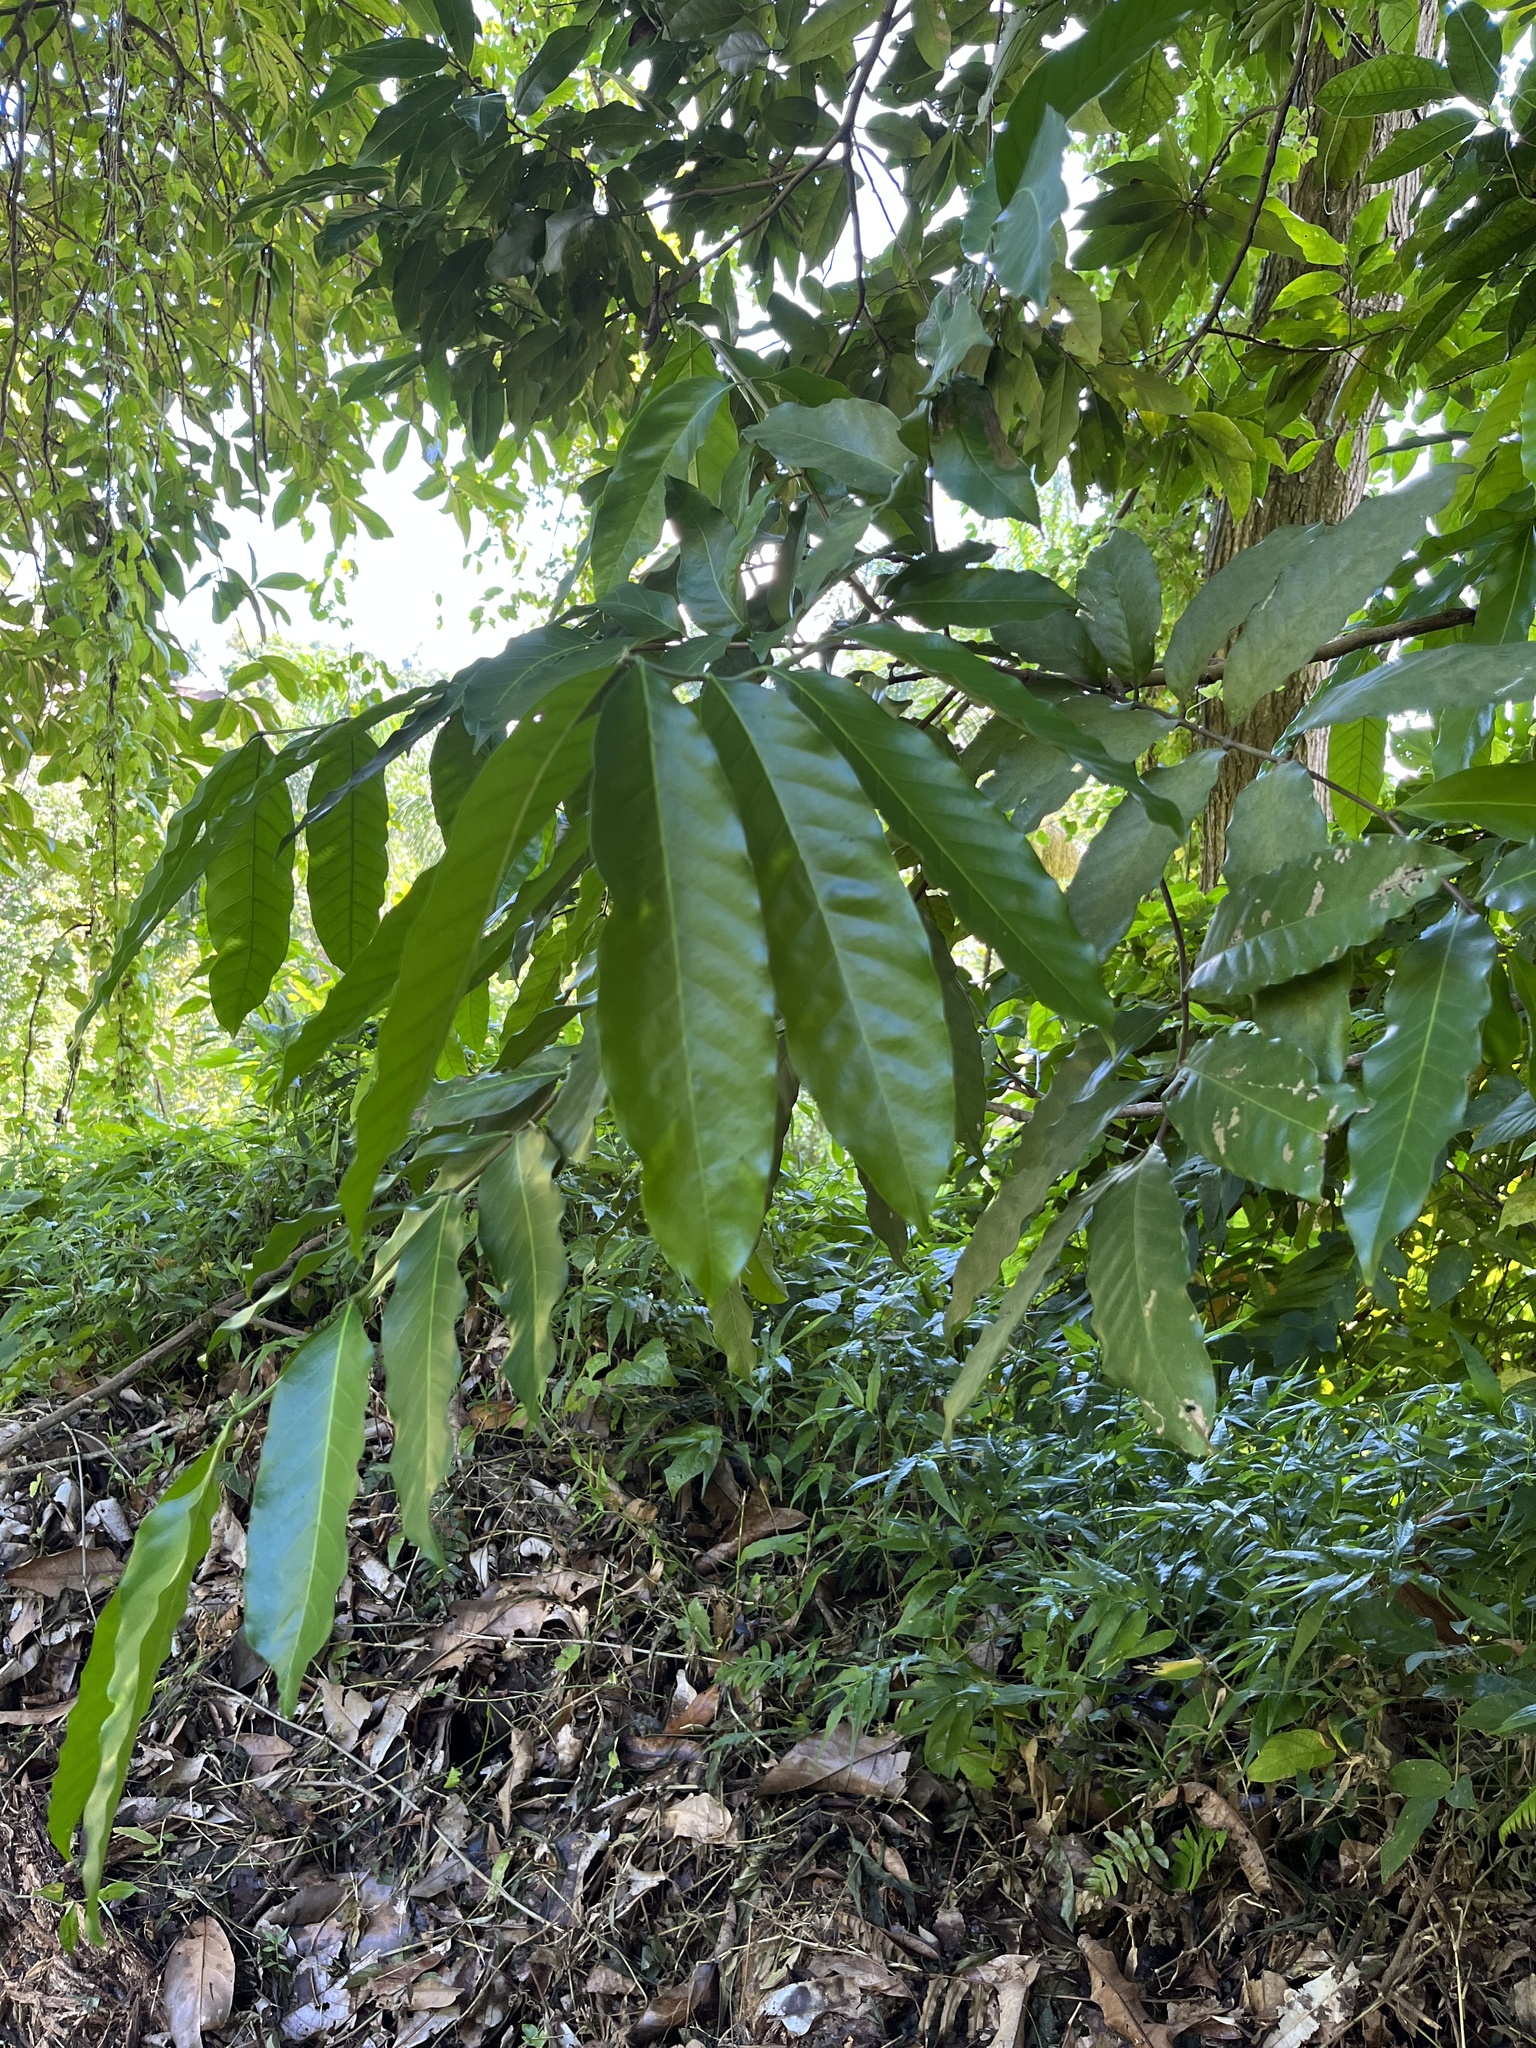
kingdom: Plantae
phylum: Tracheophyta
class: Magnoliopsida
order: Sapindales
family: Meliaceae
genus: Guarea
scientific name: Guarea guidonia
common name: American muskwood
